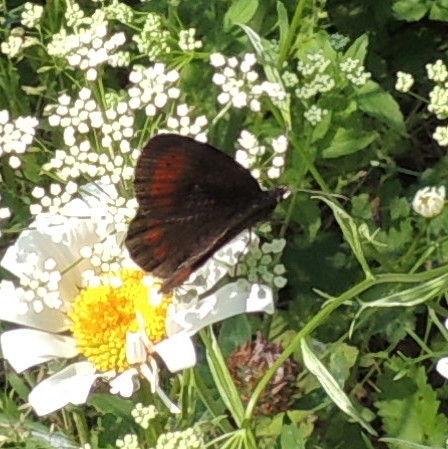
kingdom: Animalia
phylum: Arthropoda
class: Insecta
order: Lepidoptera
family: Nymphalidae
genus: Erebia
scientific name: Erebia euryale
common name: Large ringlet
